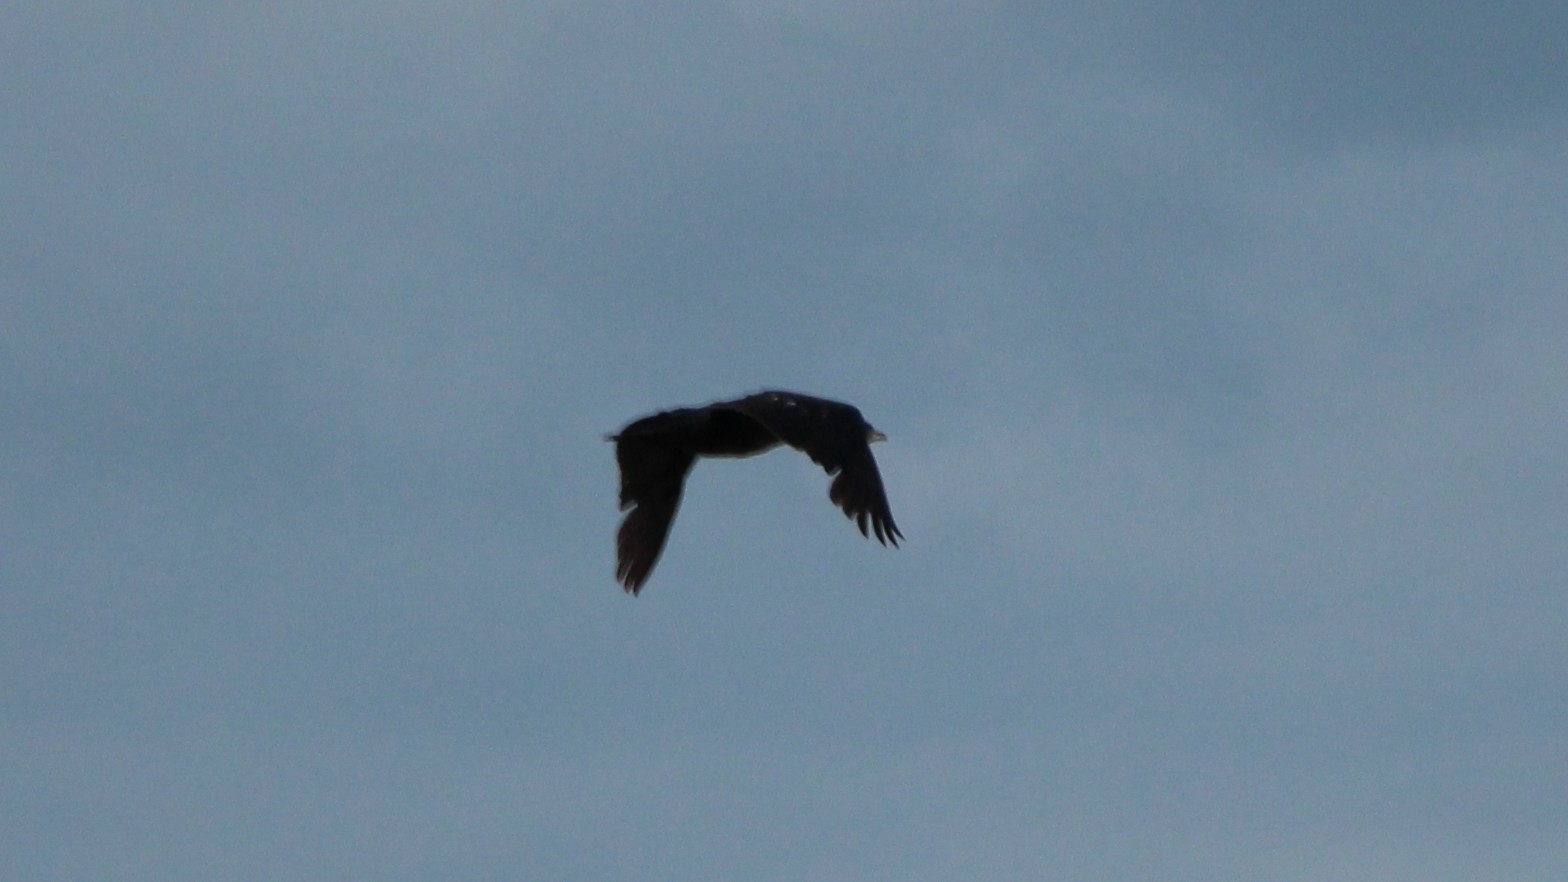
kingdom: Animalia
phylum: Chordata
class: Aves
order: Suliformes
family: Phalacrocoracidae
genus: Phalacrocorax
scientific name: Phalacrocorax carbo
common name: Great cormorant
